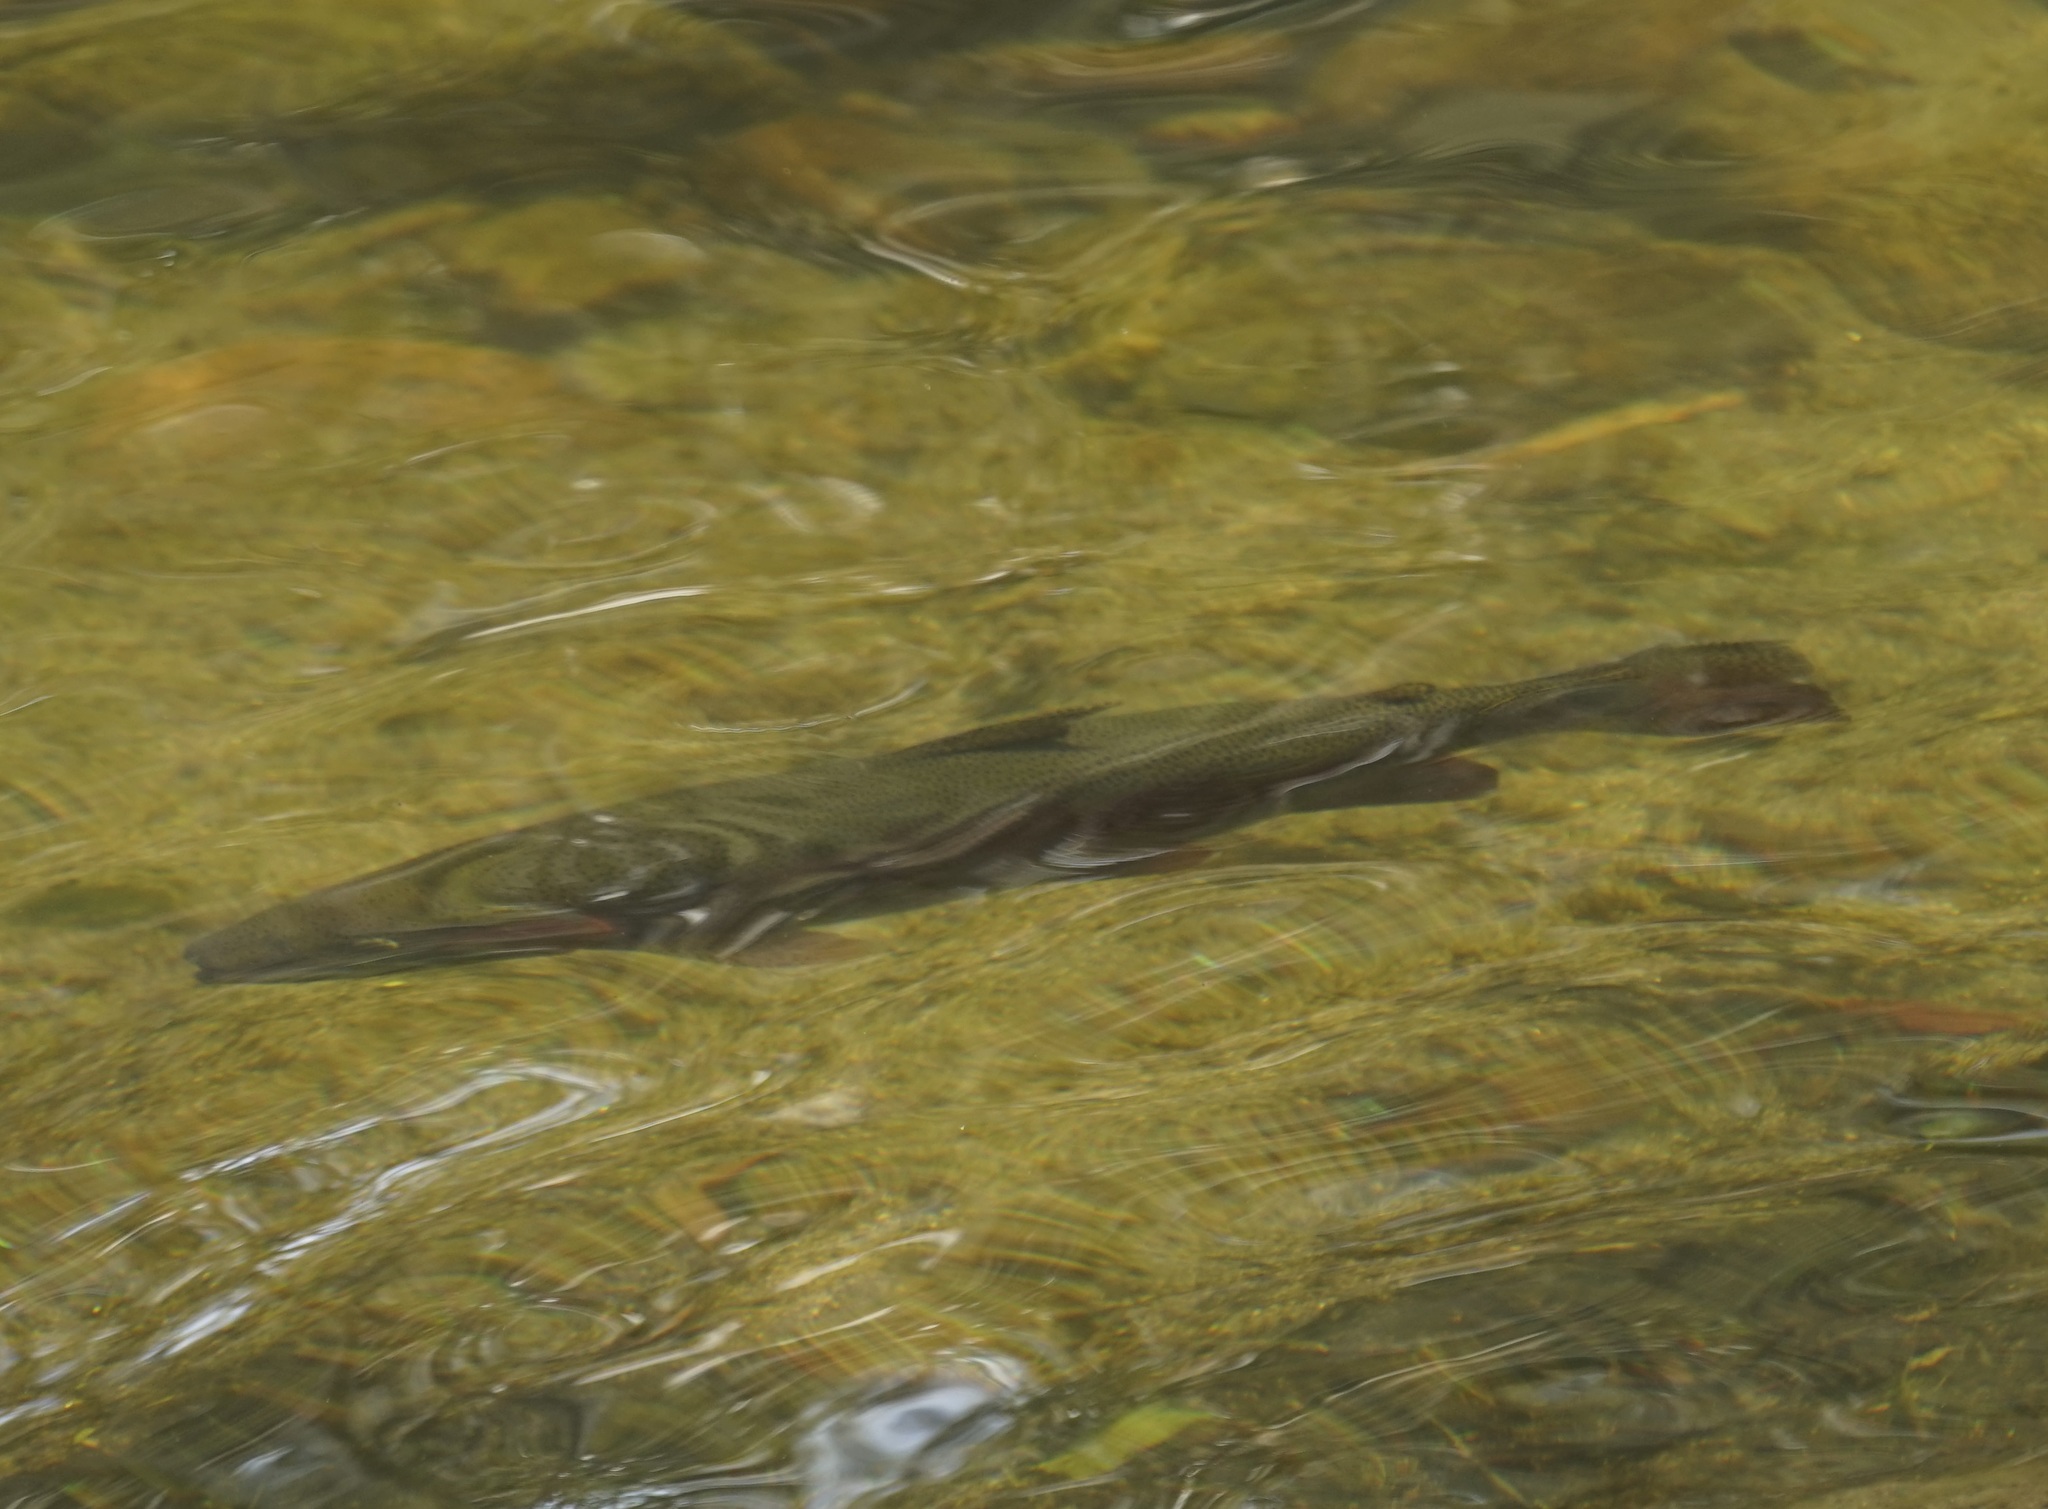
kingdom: Animalia
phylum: Chordata
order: Salmoniformes
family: Salmonidae
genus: Oncorhynchus
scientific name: Oncorhynchus mykiss
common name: Rainbow trout
